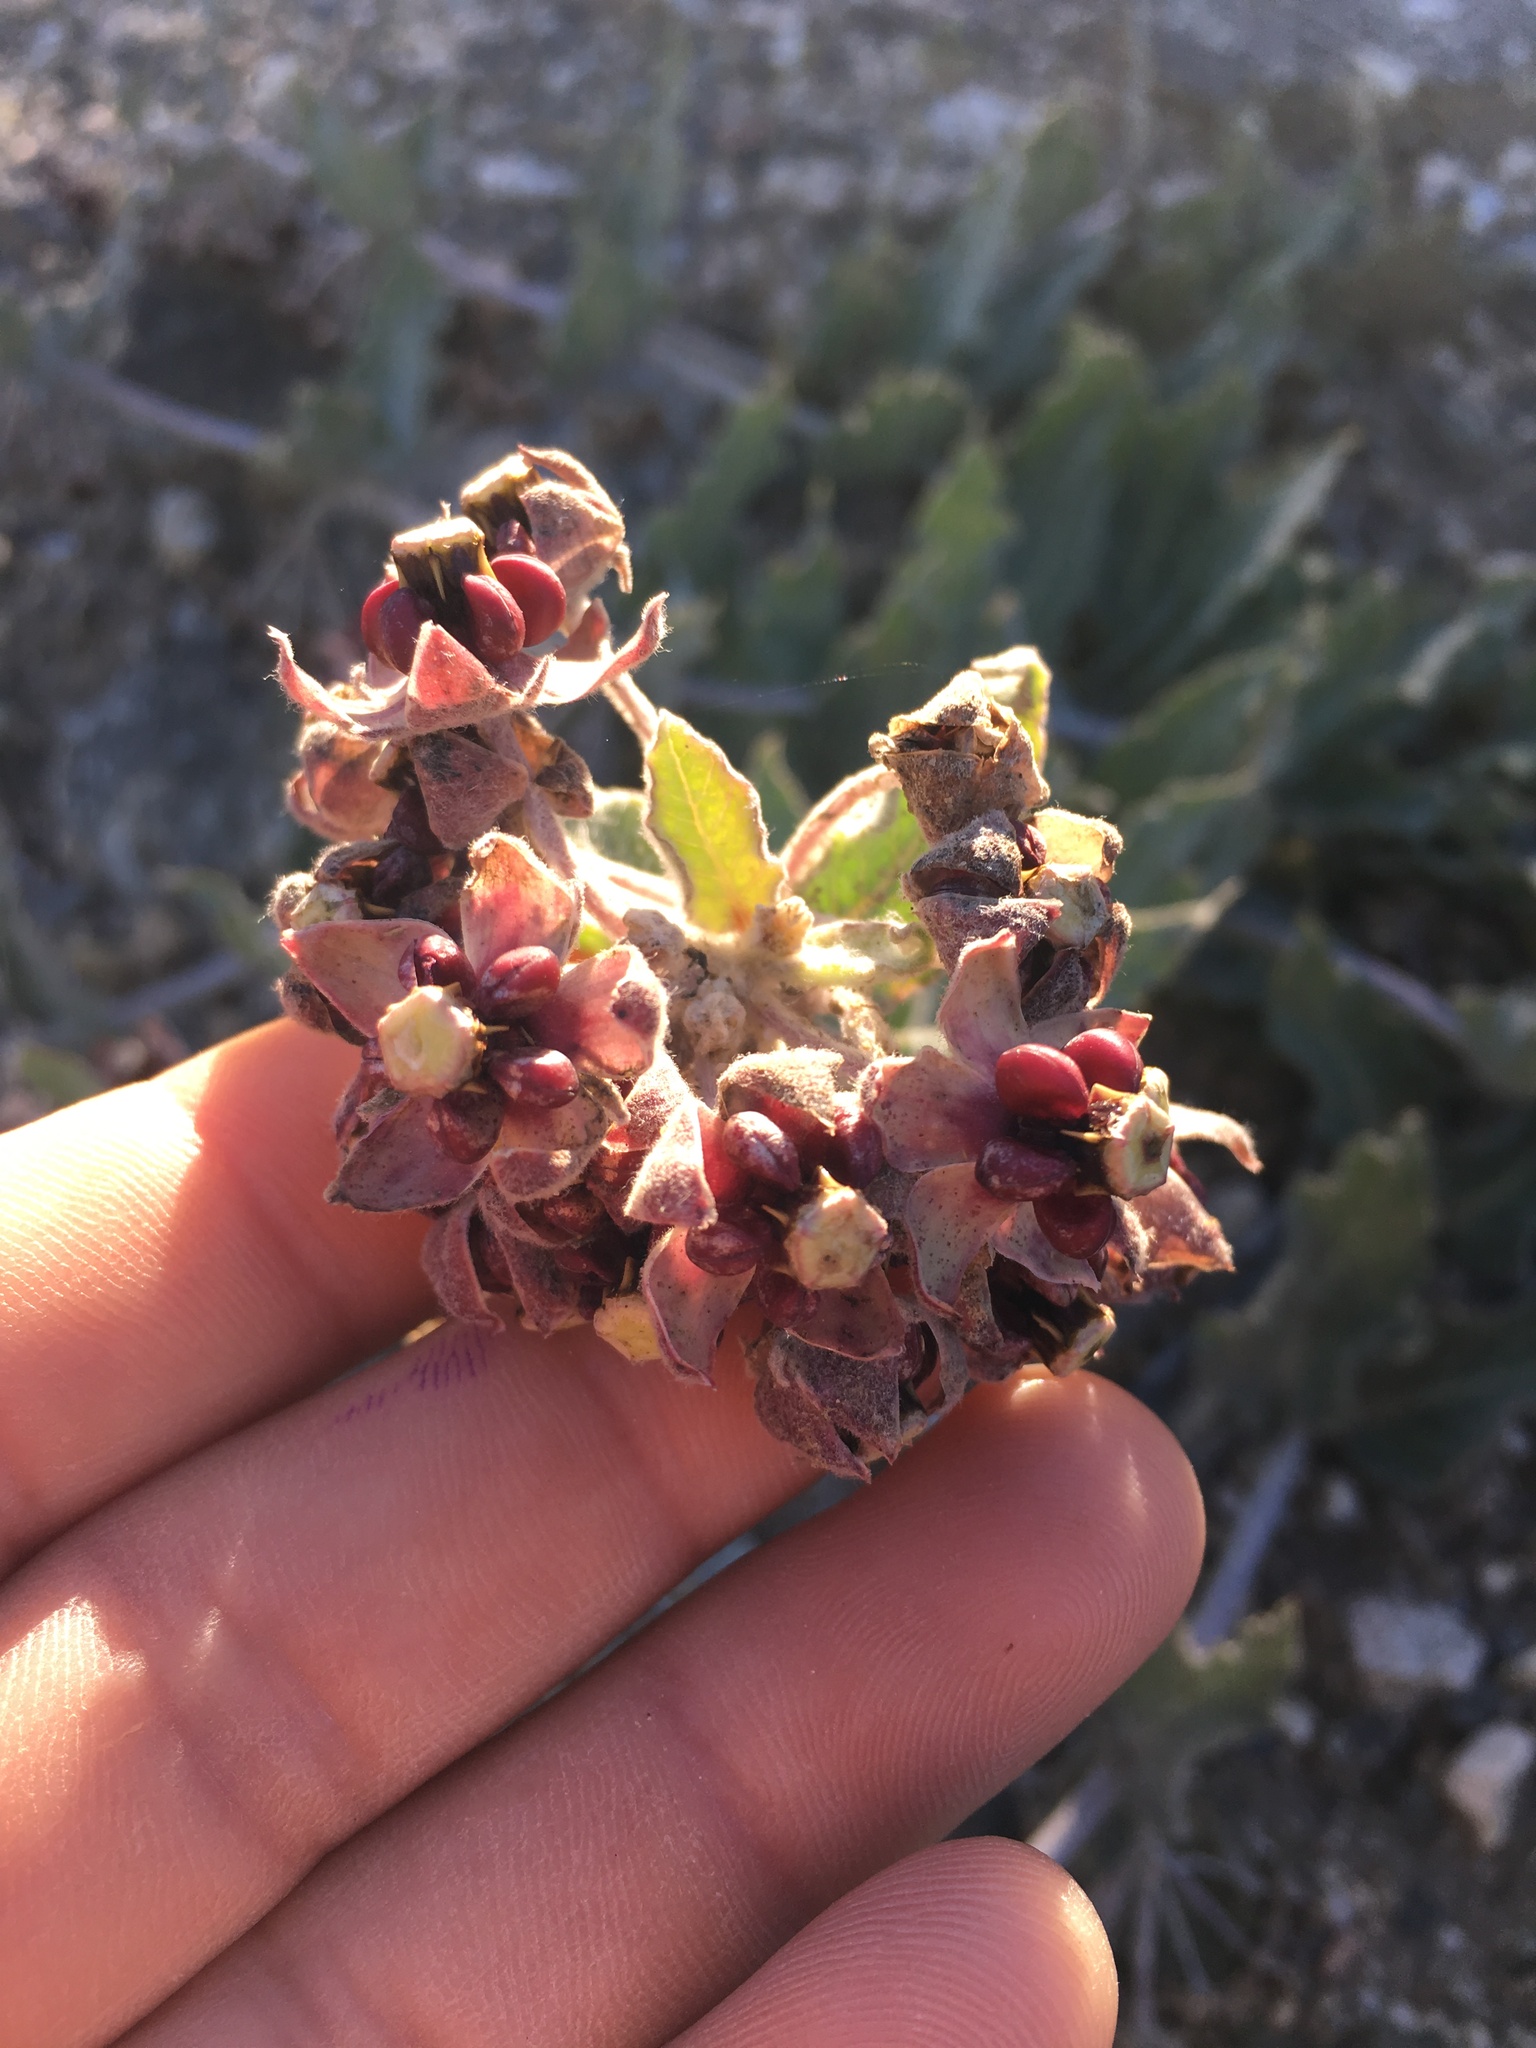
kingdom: Plantae
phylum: Tracheophyta
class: Magnoliopsida
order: Gentianales
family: Apocynaceae
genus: Asclepias
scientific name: Asclepias californica
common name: California milkweed
